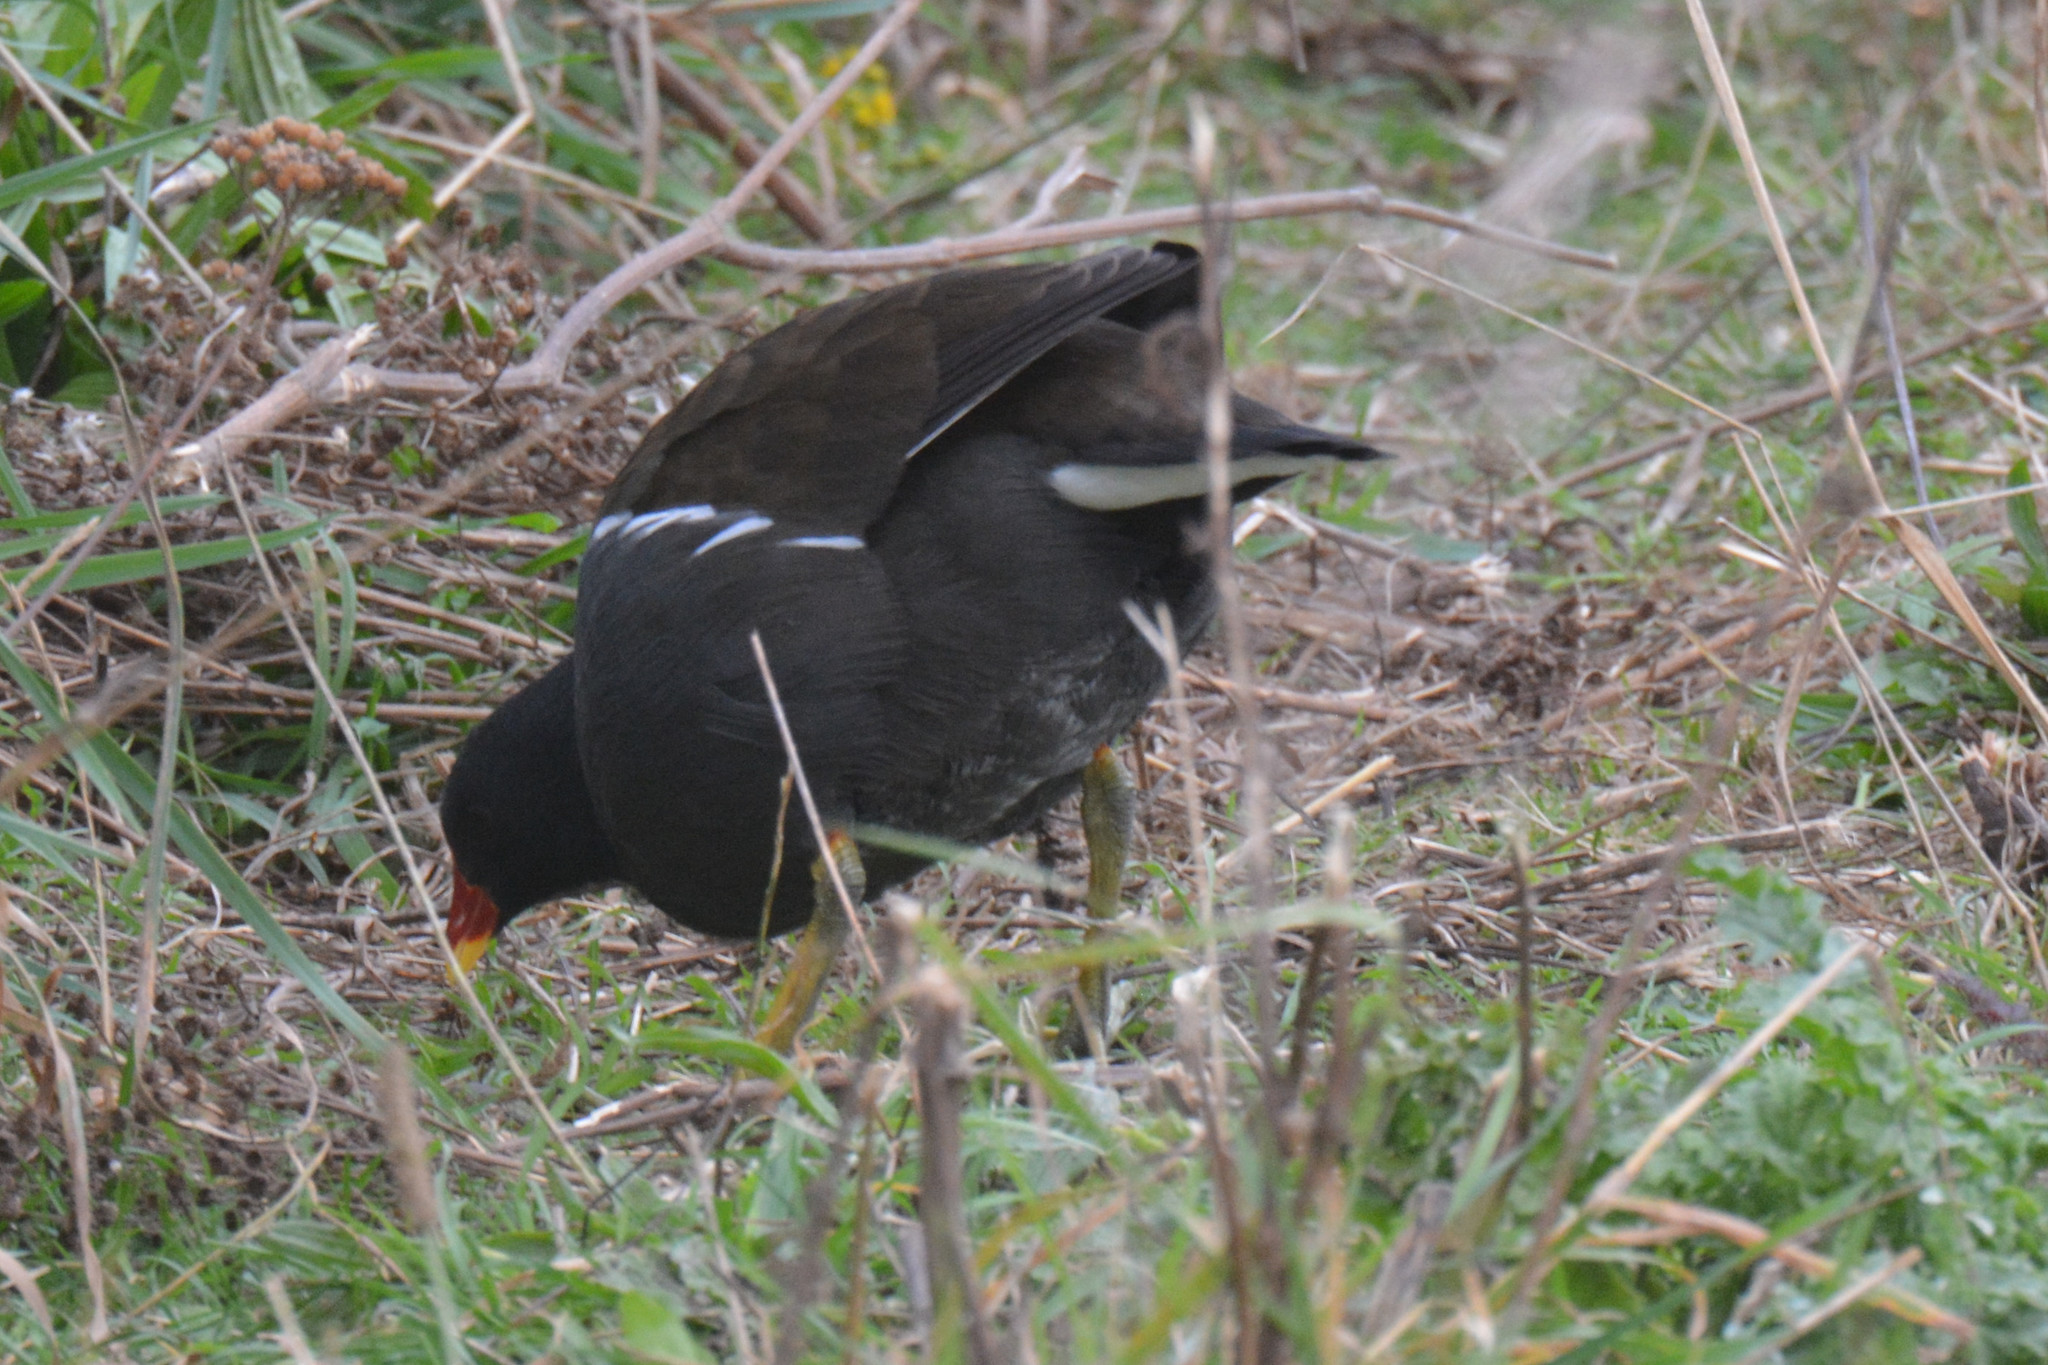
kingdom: Animalia
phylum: Chordata
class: Aves
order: Gruiformes
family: Rallidae
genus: Gallinula
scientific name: Gallinula chloropus
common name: Common moorhen
